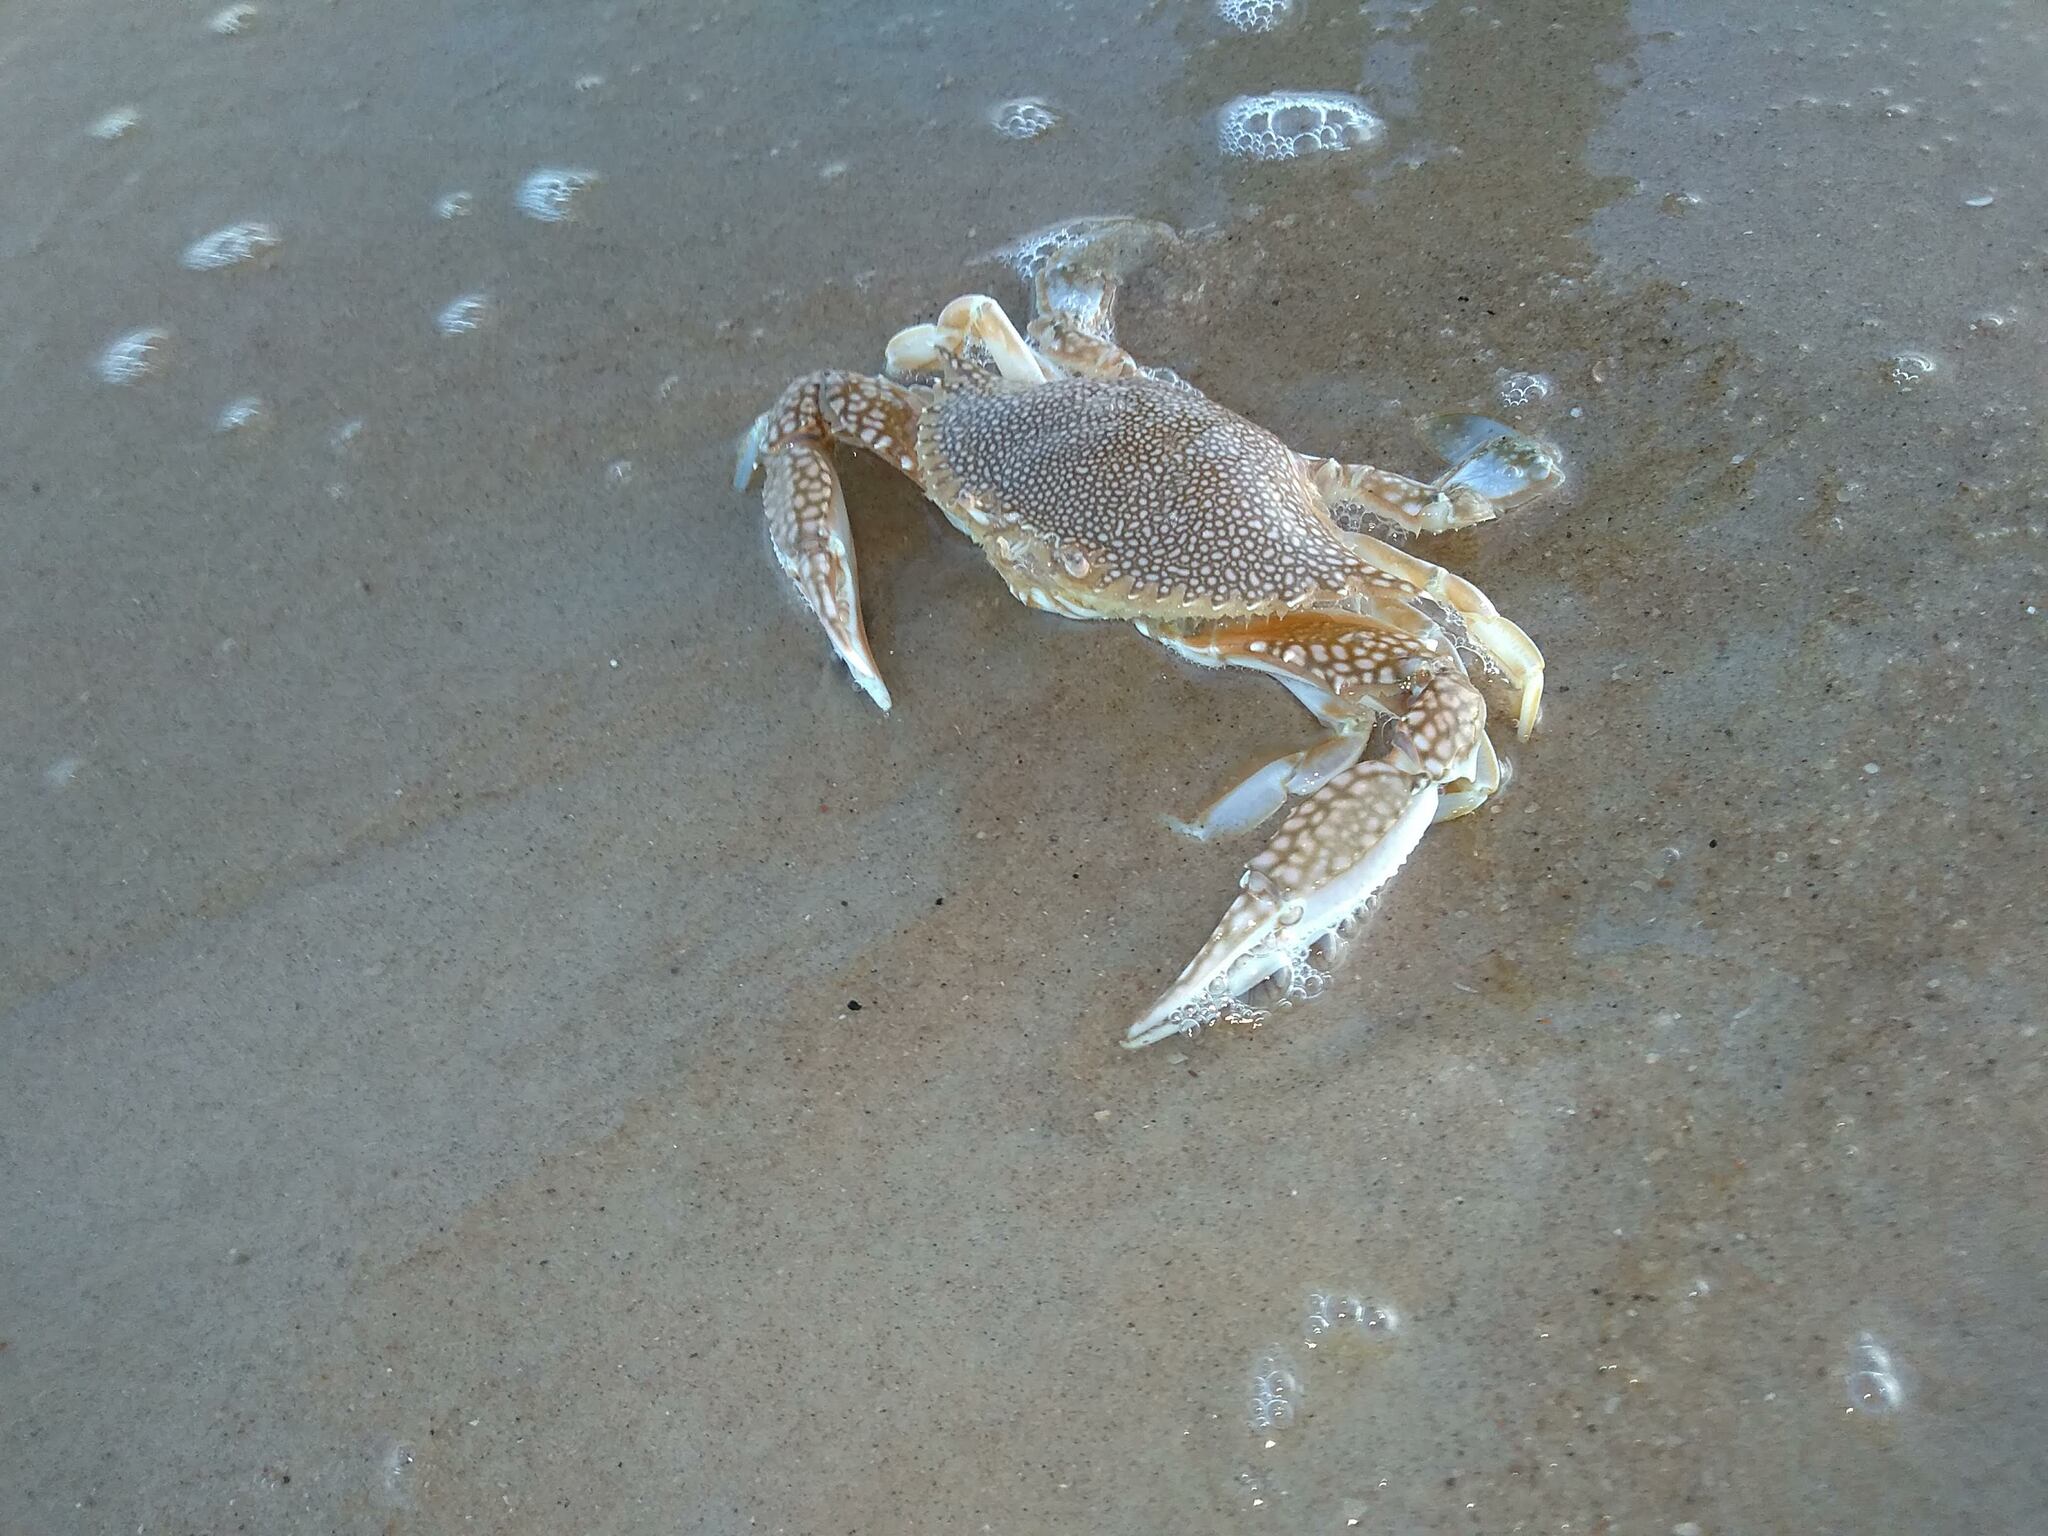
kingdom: Animalia
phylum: Arthropoda
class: Malacostraca
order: Decapoda
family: Portunidae
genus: Arenaeus
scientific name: Arenaeus cribrarius
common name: Speckled crab
